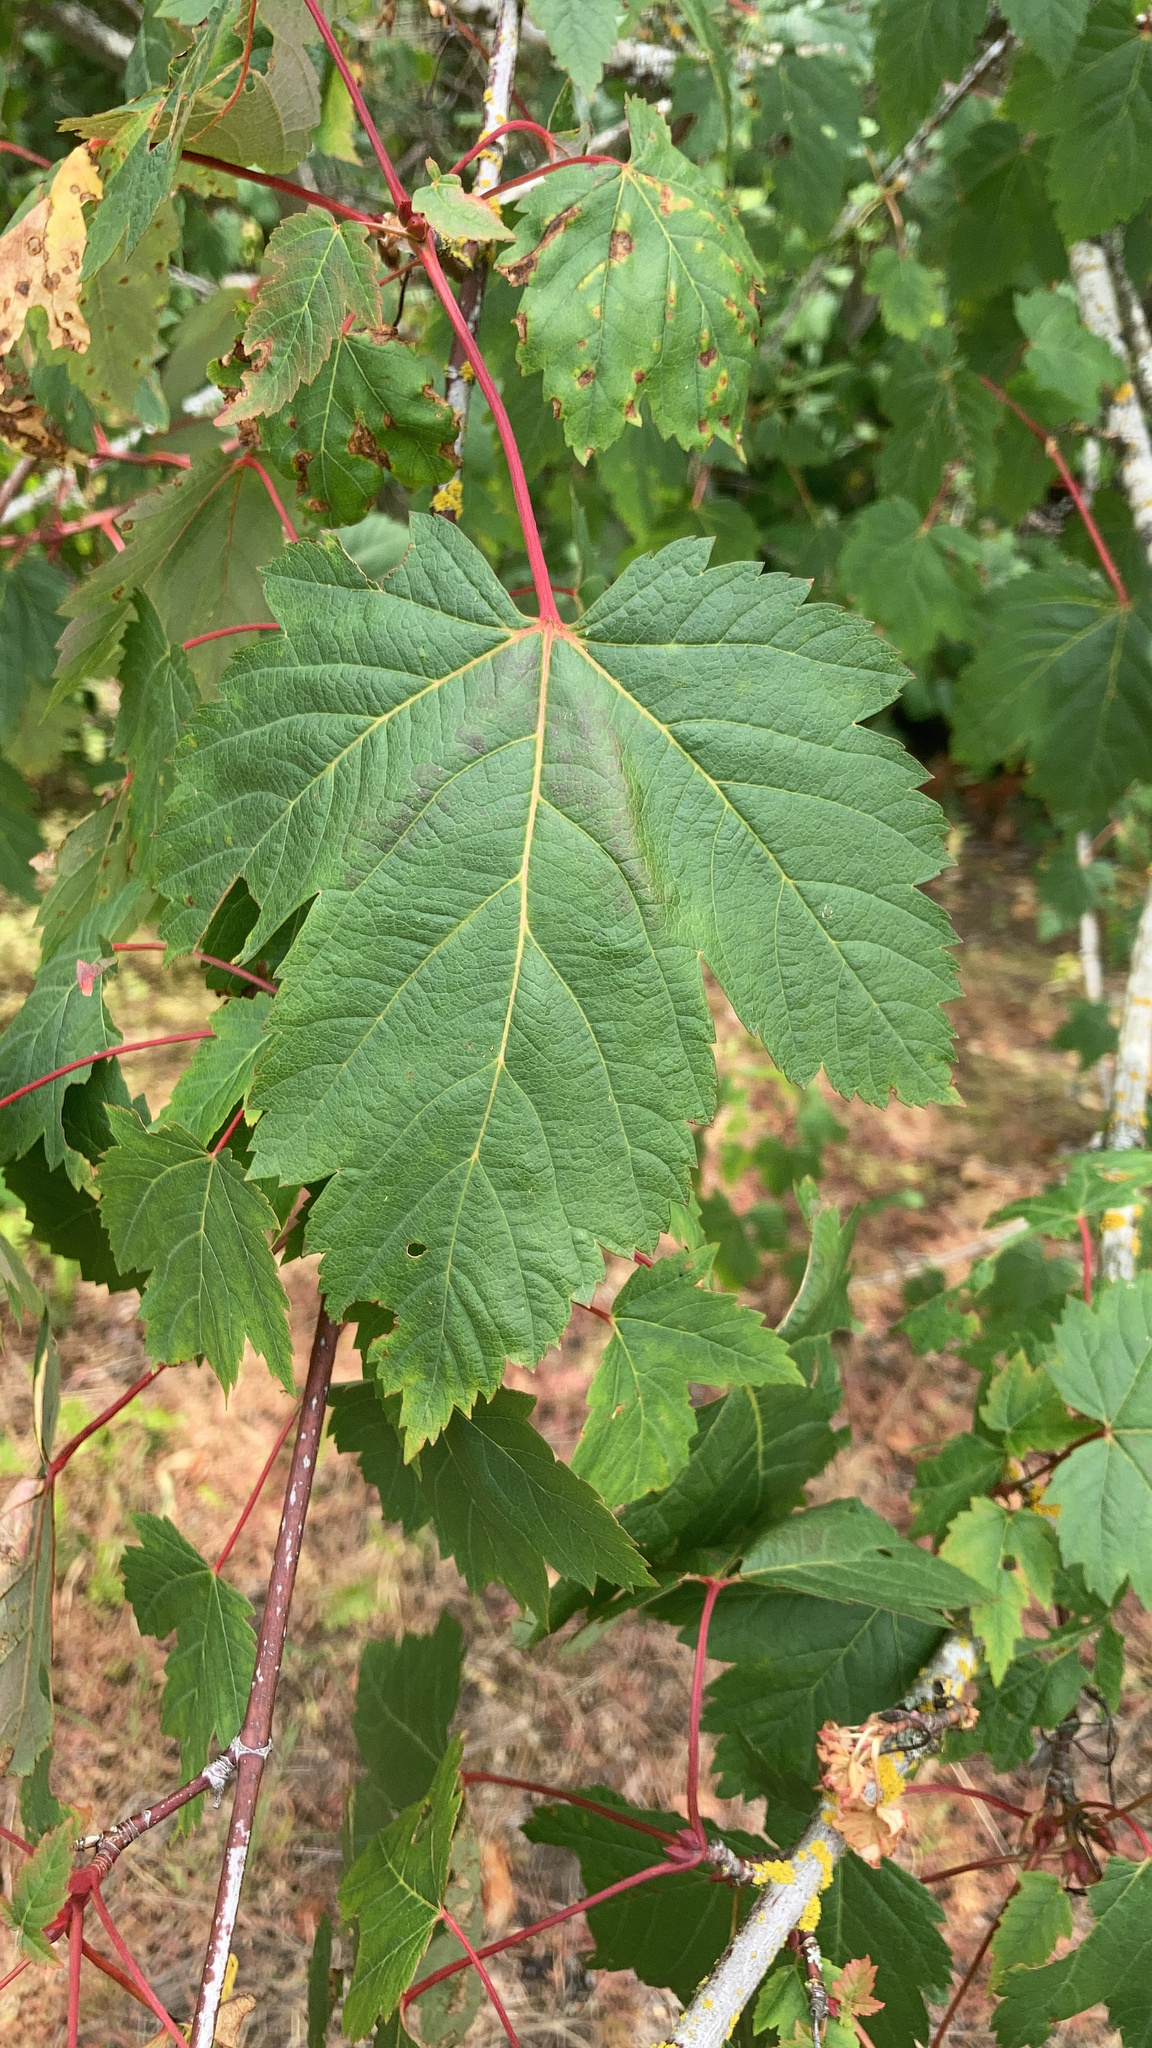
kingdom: Plantae
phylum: Tracheophyta
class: Magnoliopsida
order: Sapindales
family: Sapindaceae
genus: Acer
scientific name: Acer glabrum
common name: Rocky mountain maple
